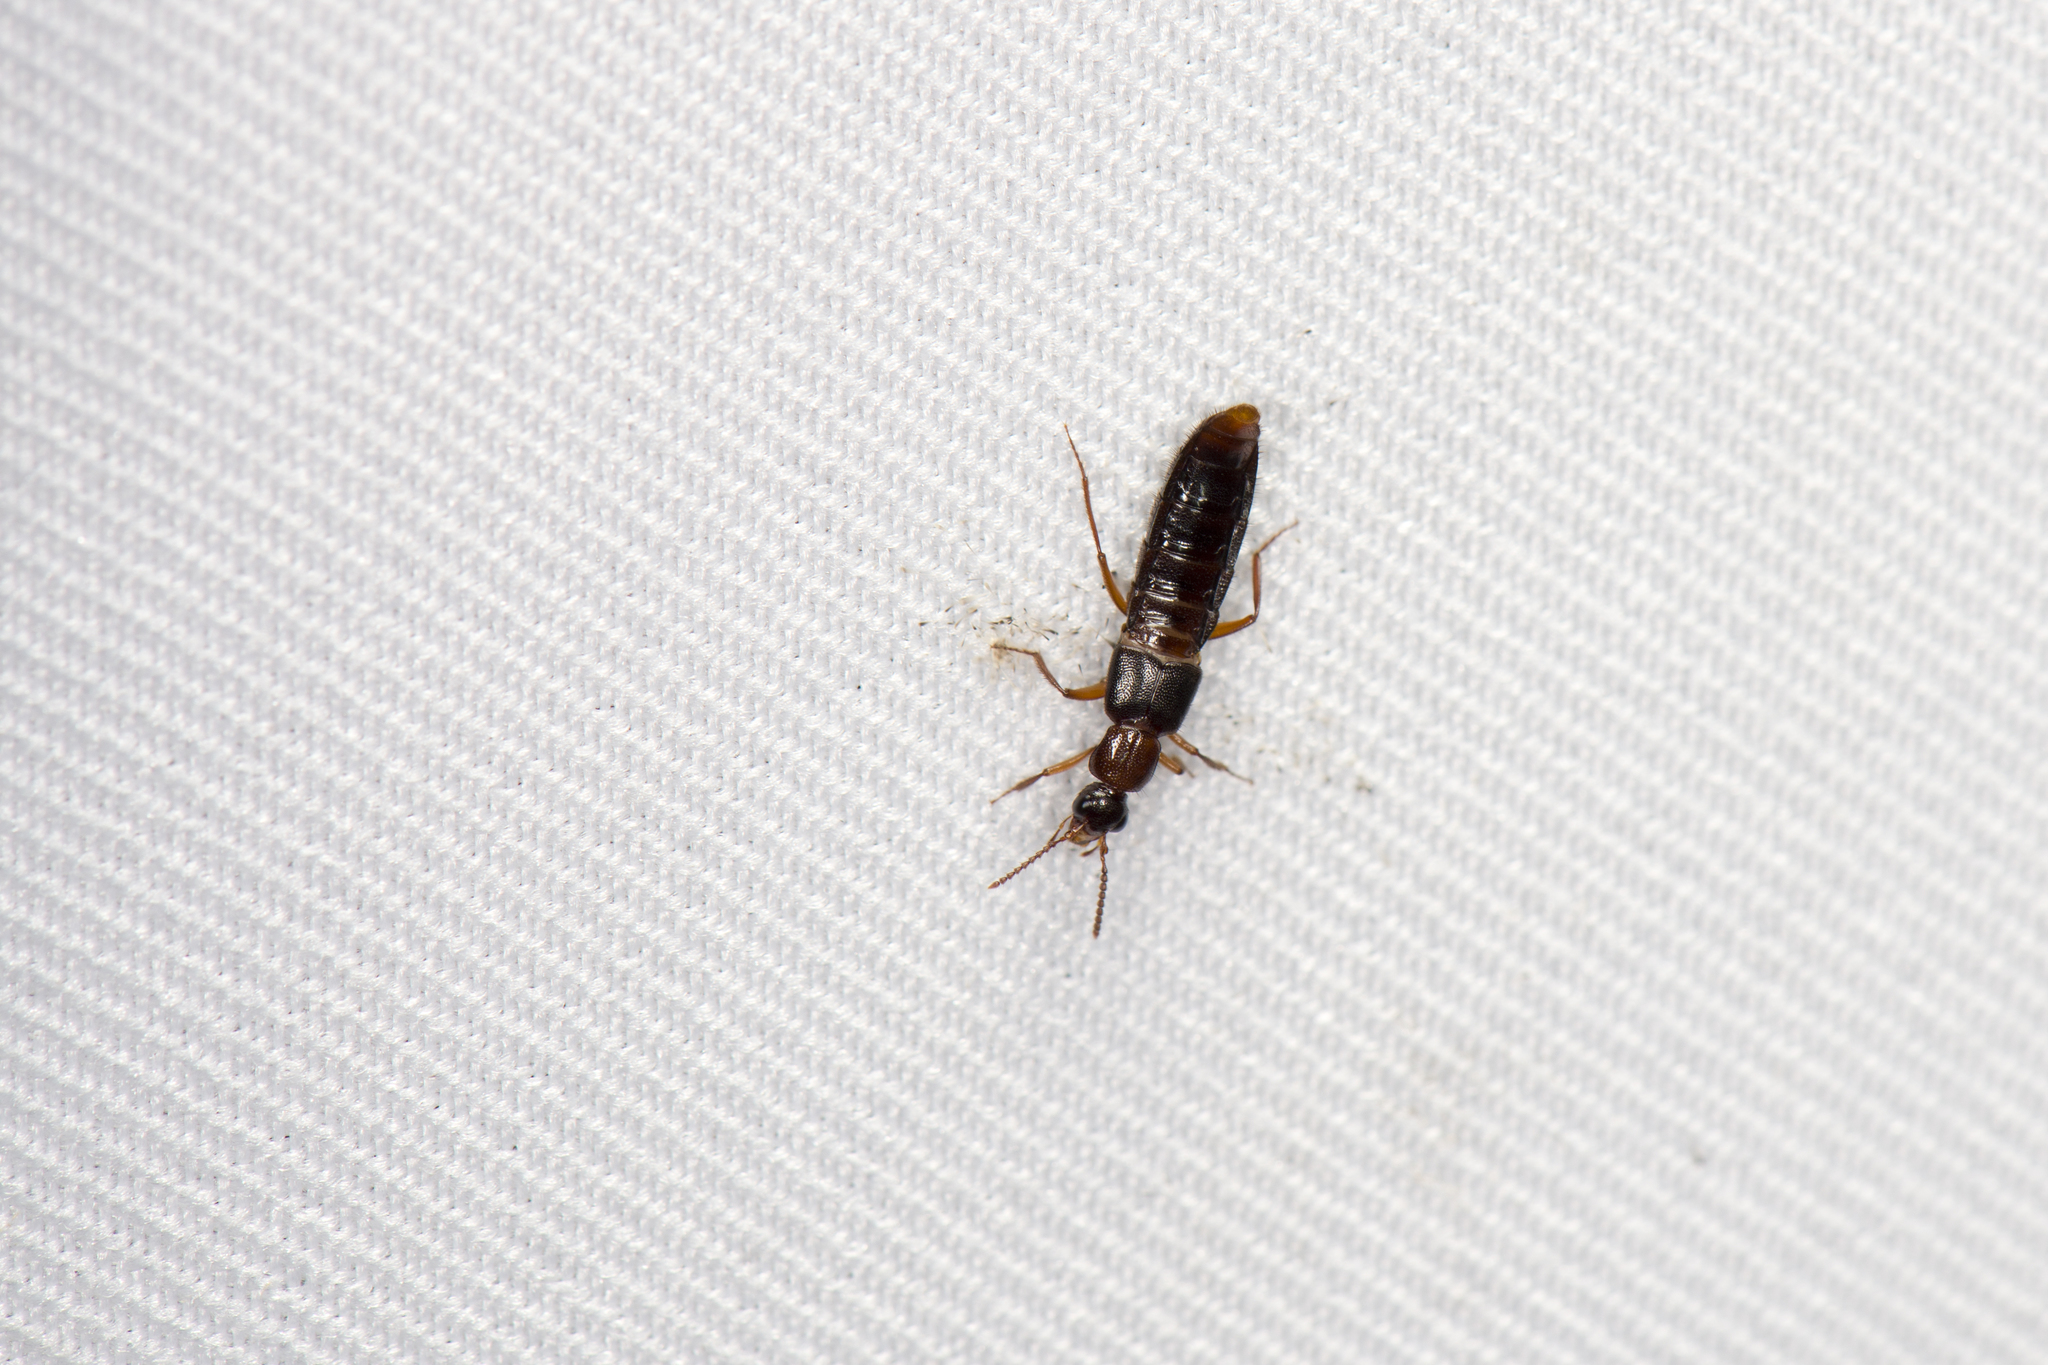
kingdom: Animalia
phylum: Arthropoda
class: Insecta
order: Coleoptera
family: Staphylinidae
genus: Zyras
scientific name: Zyras formosae
